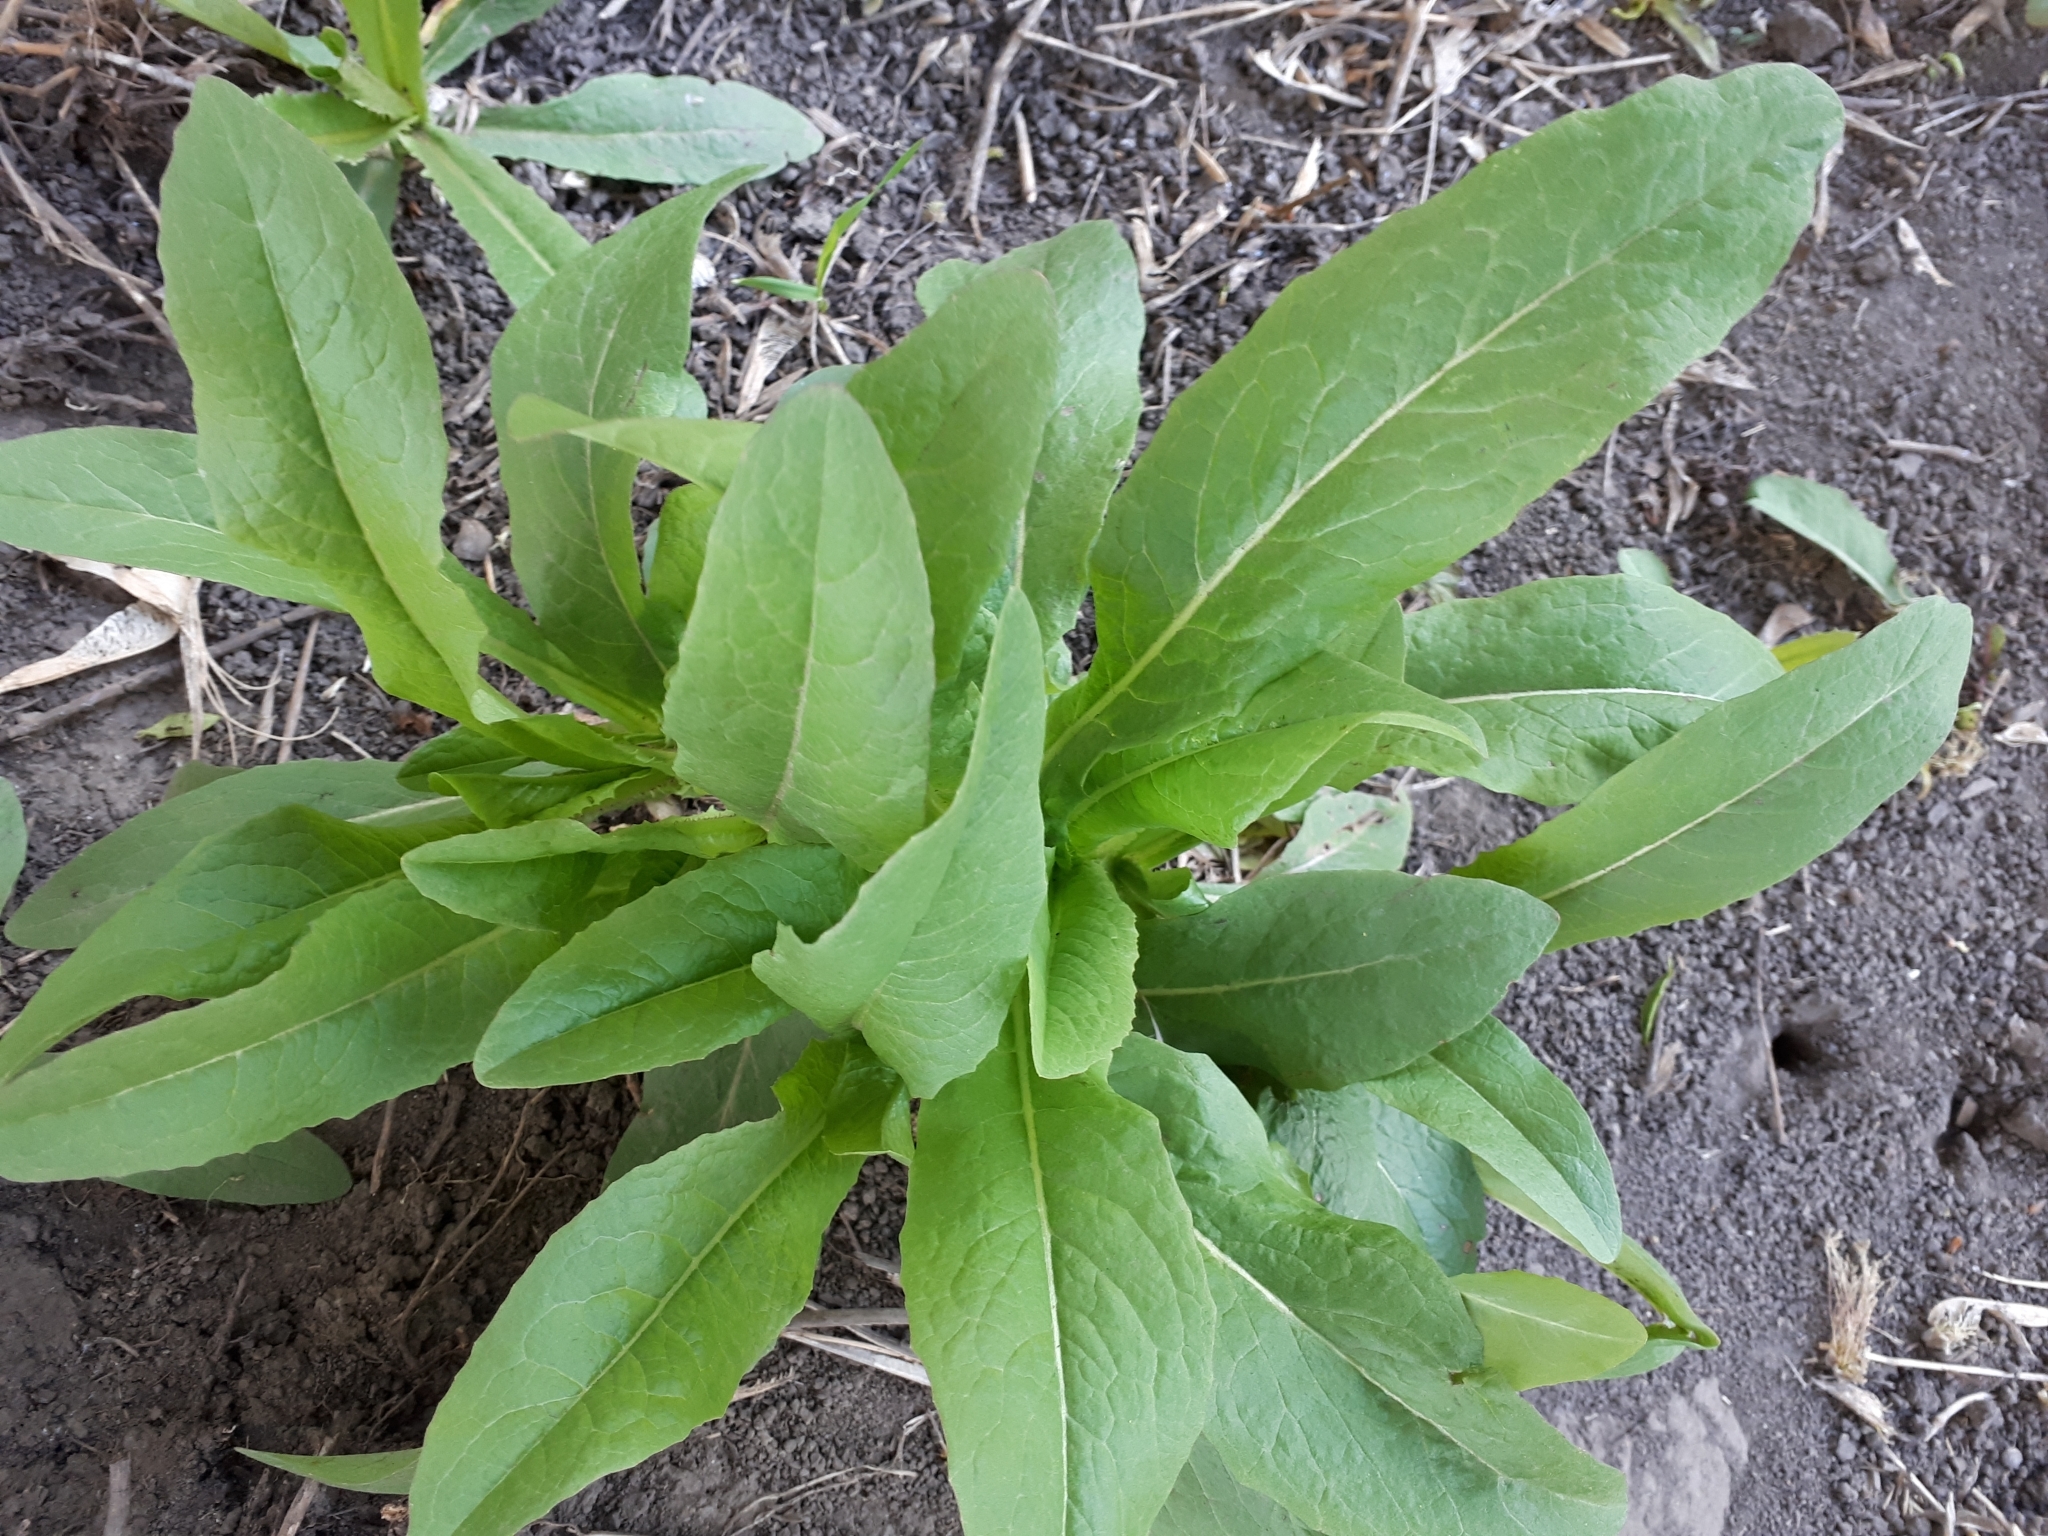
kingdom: Plantae
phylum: Tracheophyta
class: Magnoliopsida
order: Brassicales
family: Brassicaceae
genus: Bunias
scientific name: Bunias orientalis
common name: Warty-cabbage
